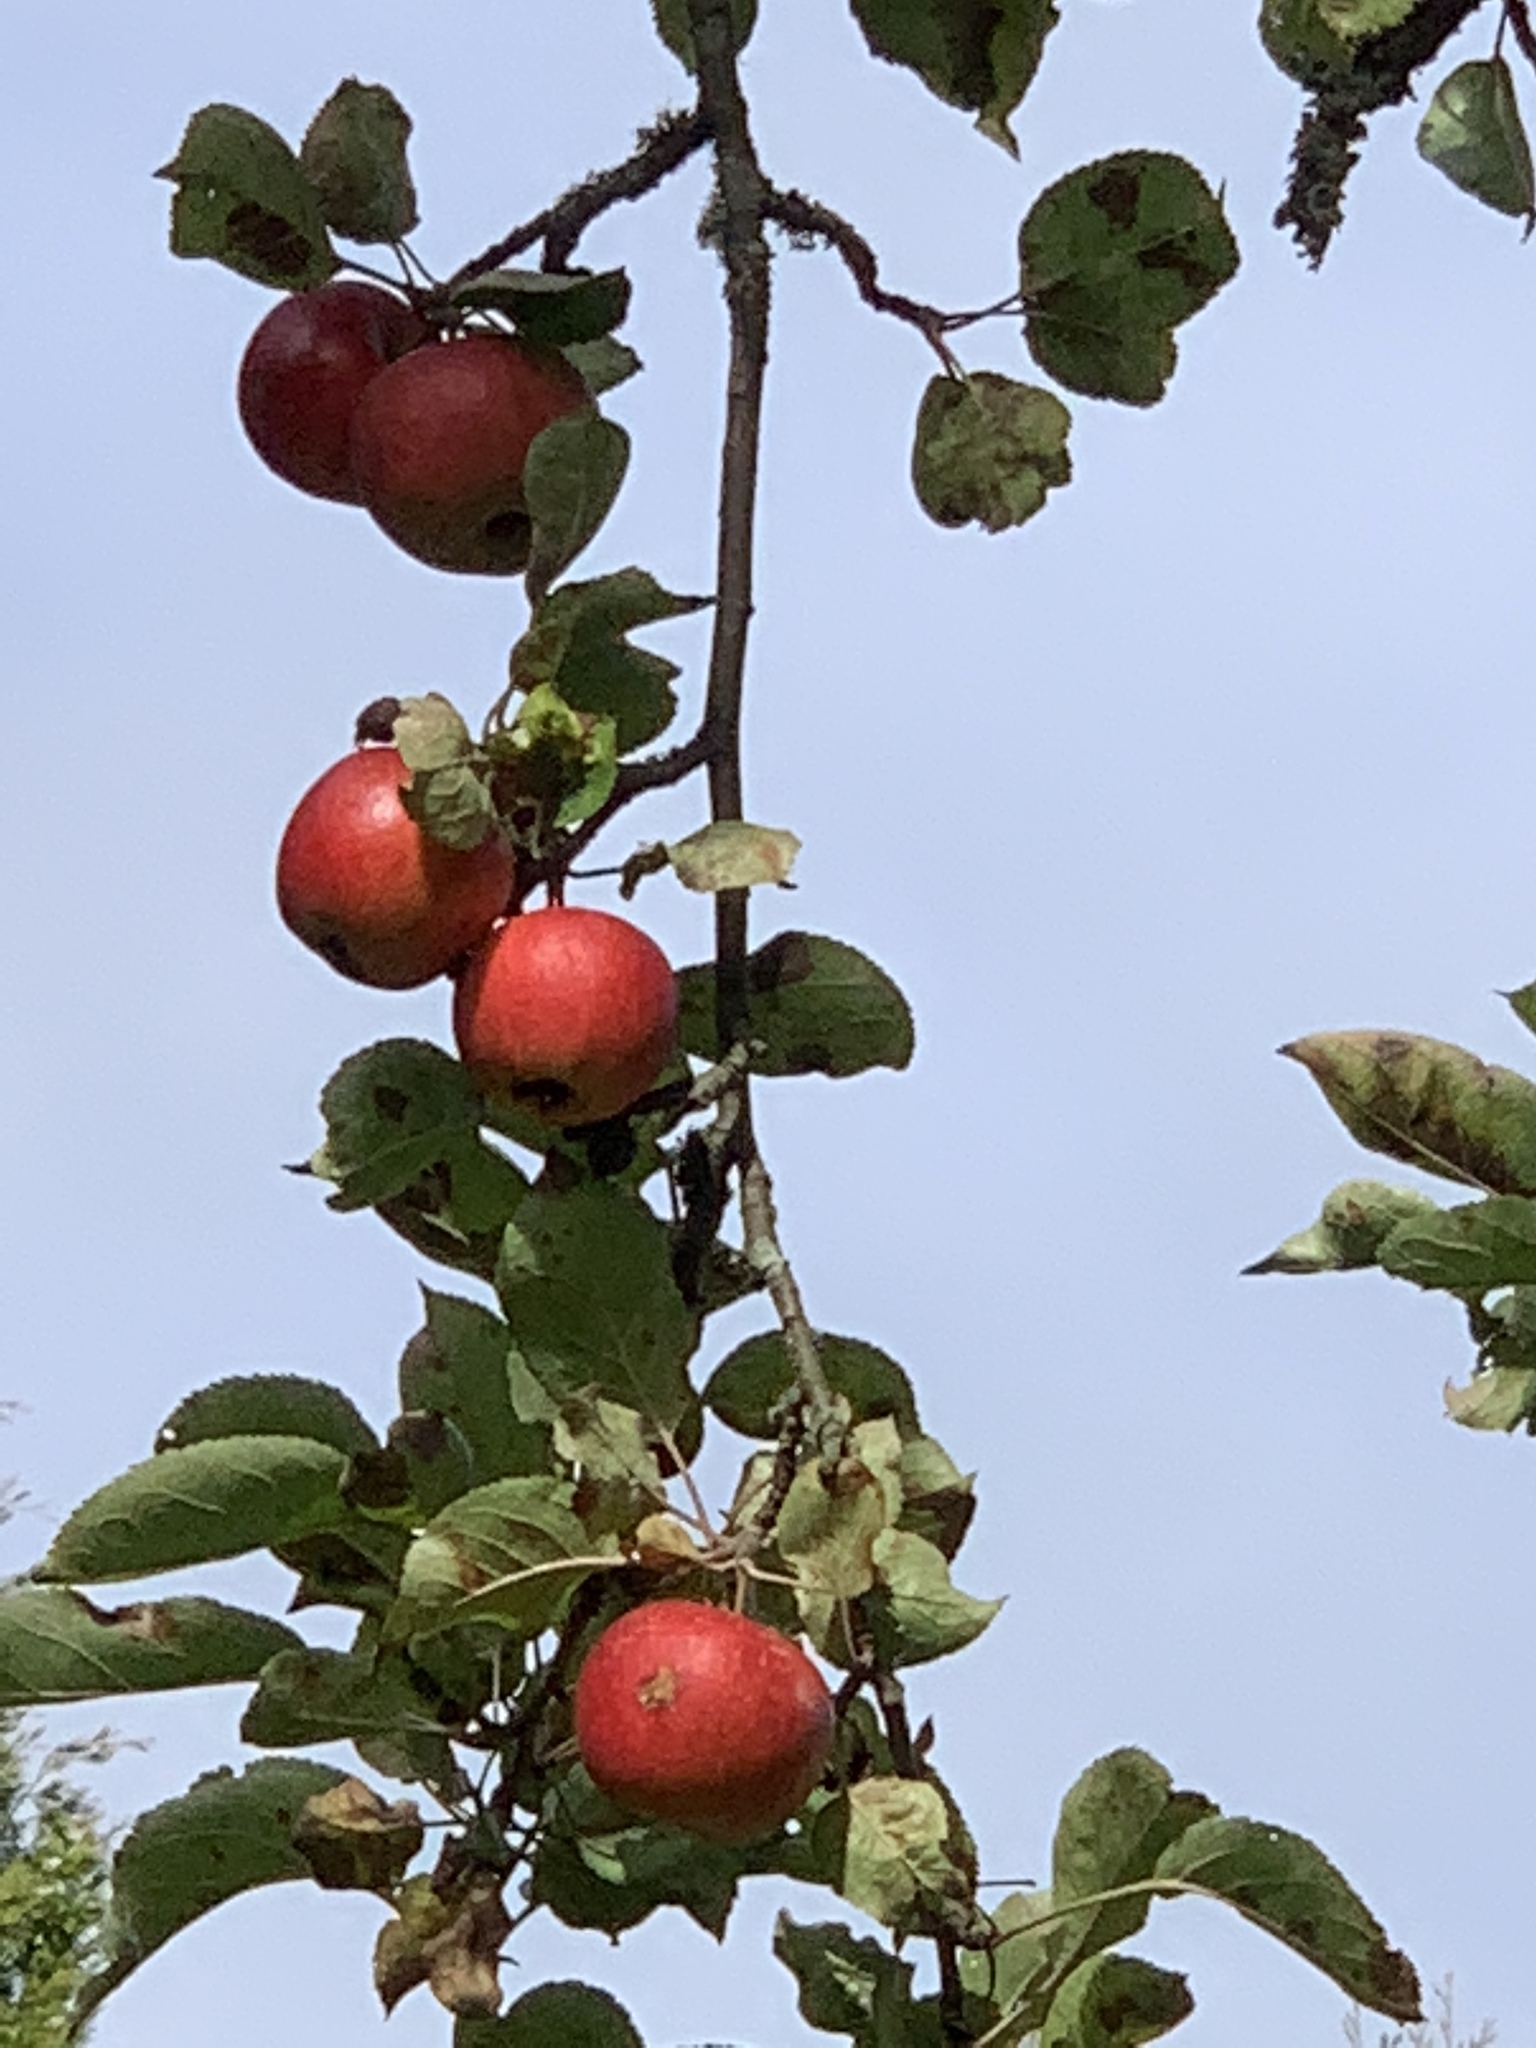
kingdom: Plantae
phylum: Tracheophyta
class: Magnoliopsida
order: Rosales
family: Rosaceae
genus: Malus
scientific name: Malus domestica
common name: Apple
